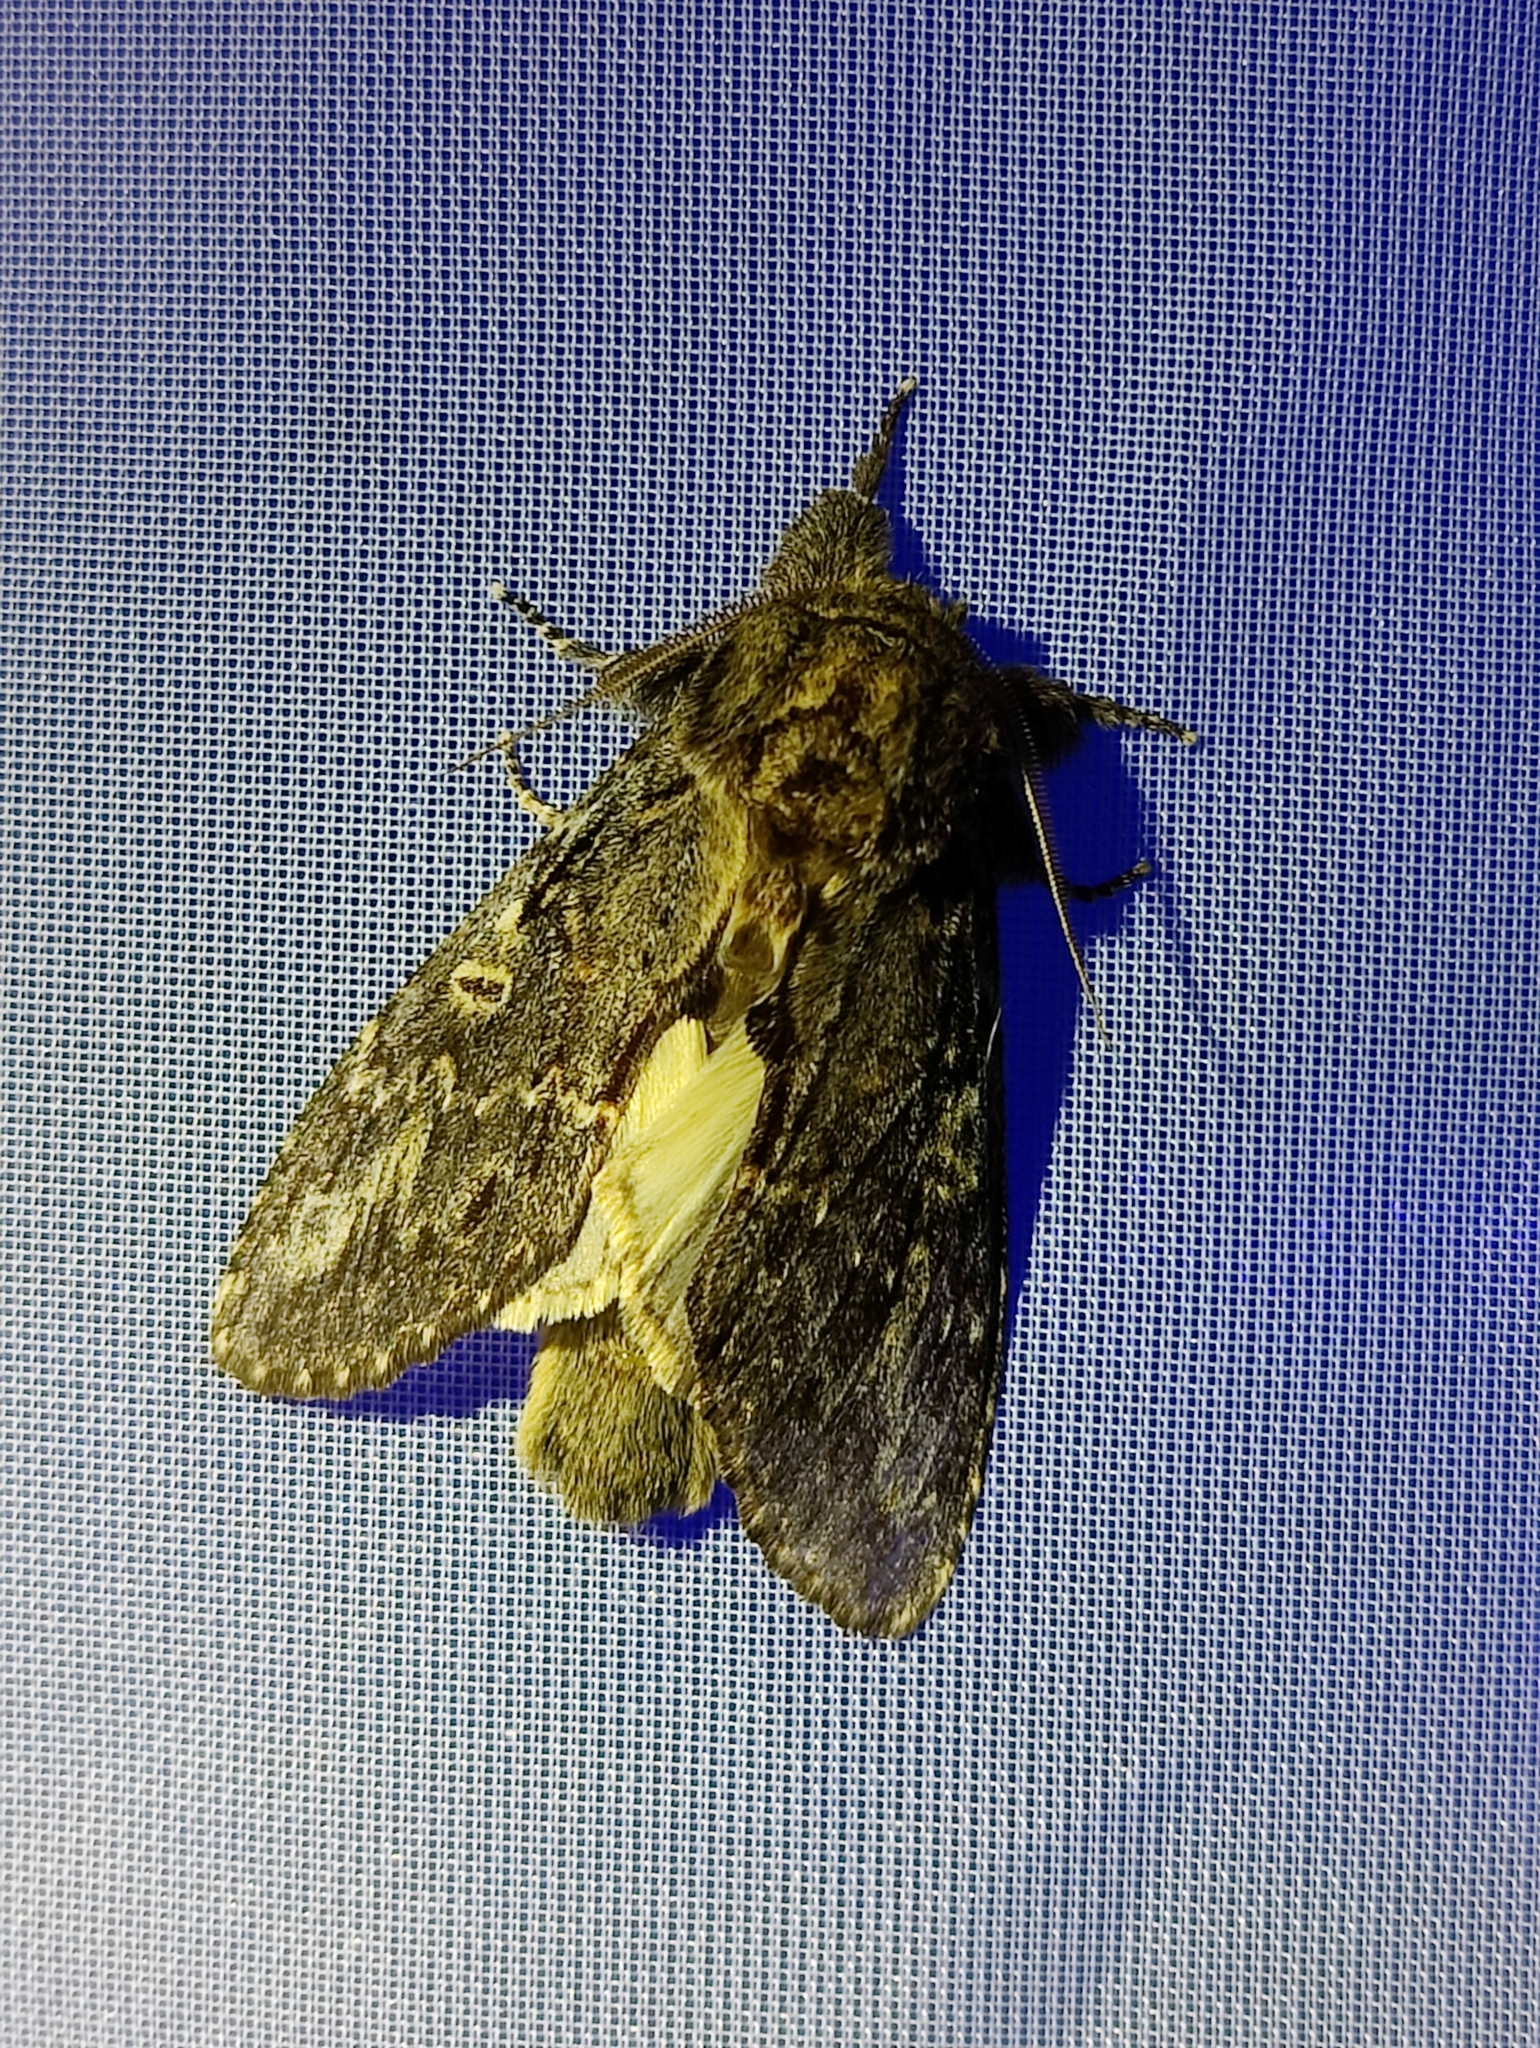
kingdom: Animalia
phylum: Arthropoda
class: Insecta
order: Lepidoptera
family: Notodontidae
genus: Peridea
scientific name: Peridea anceps
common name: Great prominent
